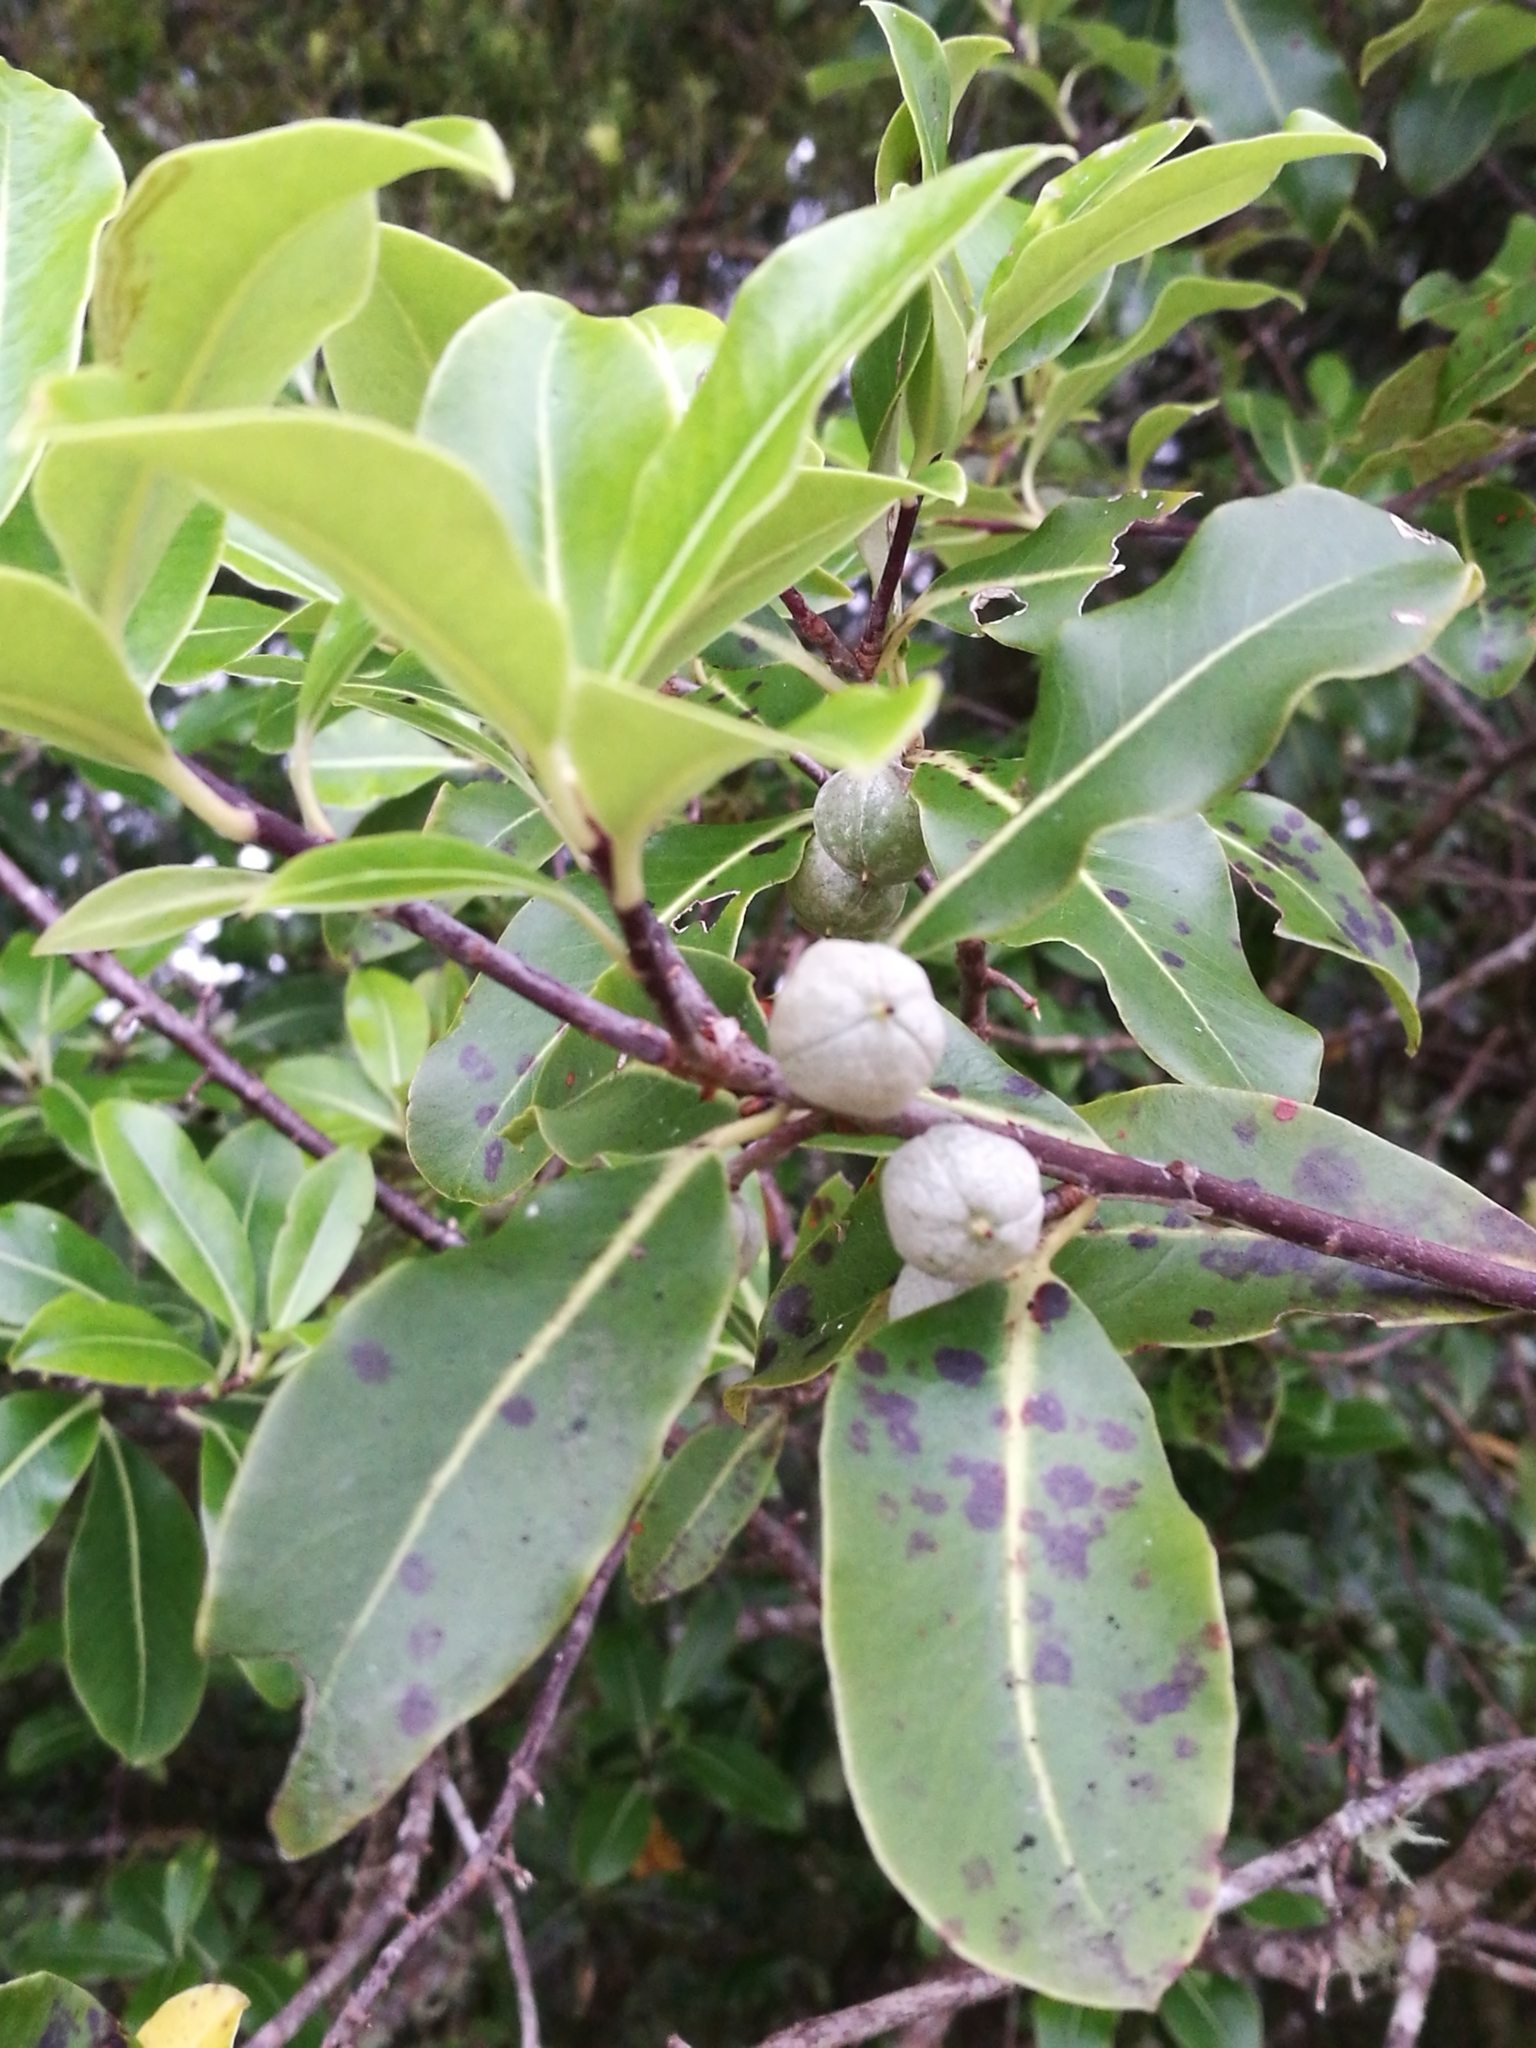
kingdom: Plantae
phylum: Tracheophyta
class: Magnoliopsida
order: Apiales
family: Pittosporaceae
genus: Pittosporum
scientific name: Pittosporum tenuifolium
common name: Kohuhu
